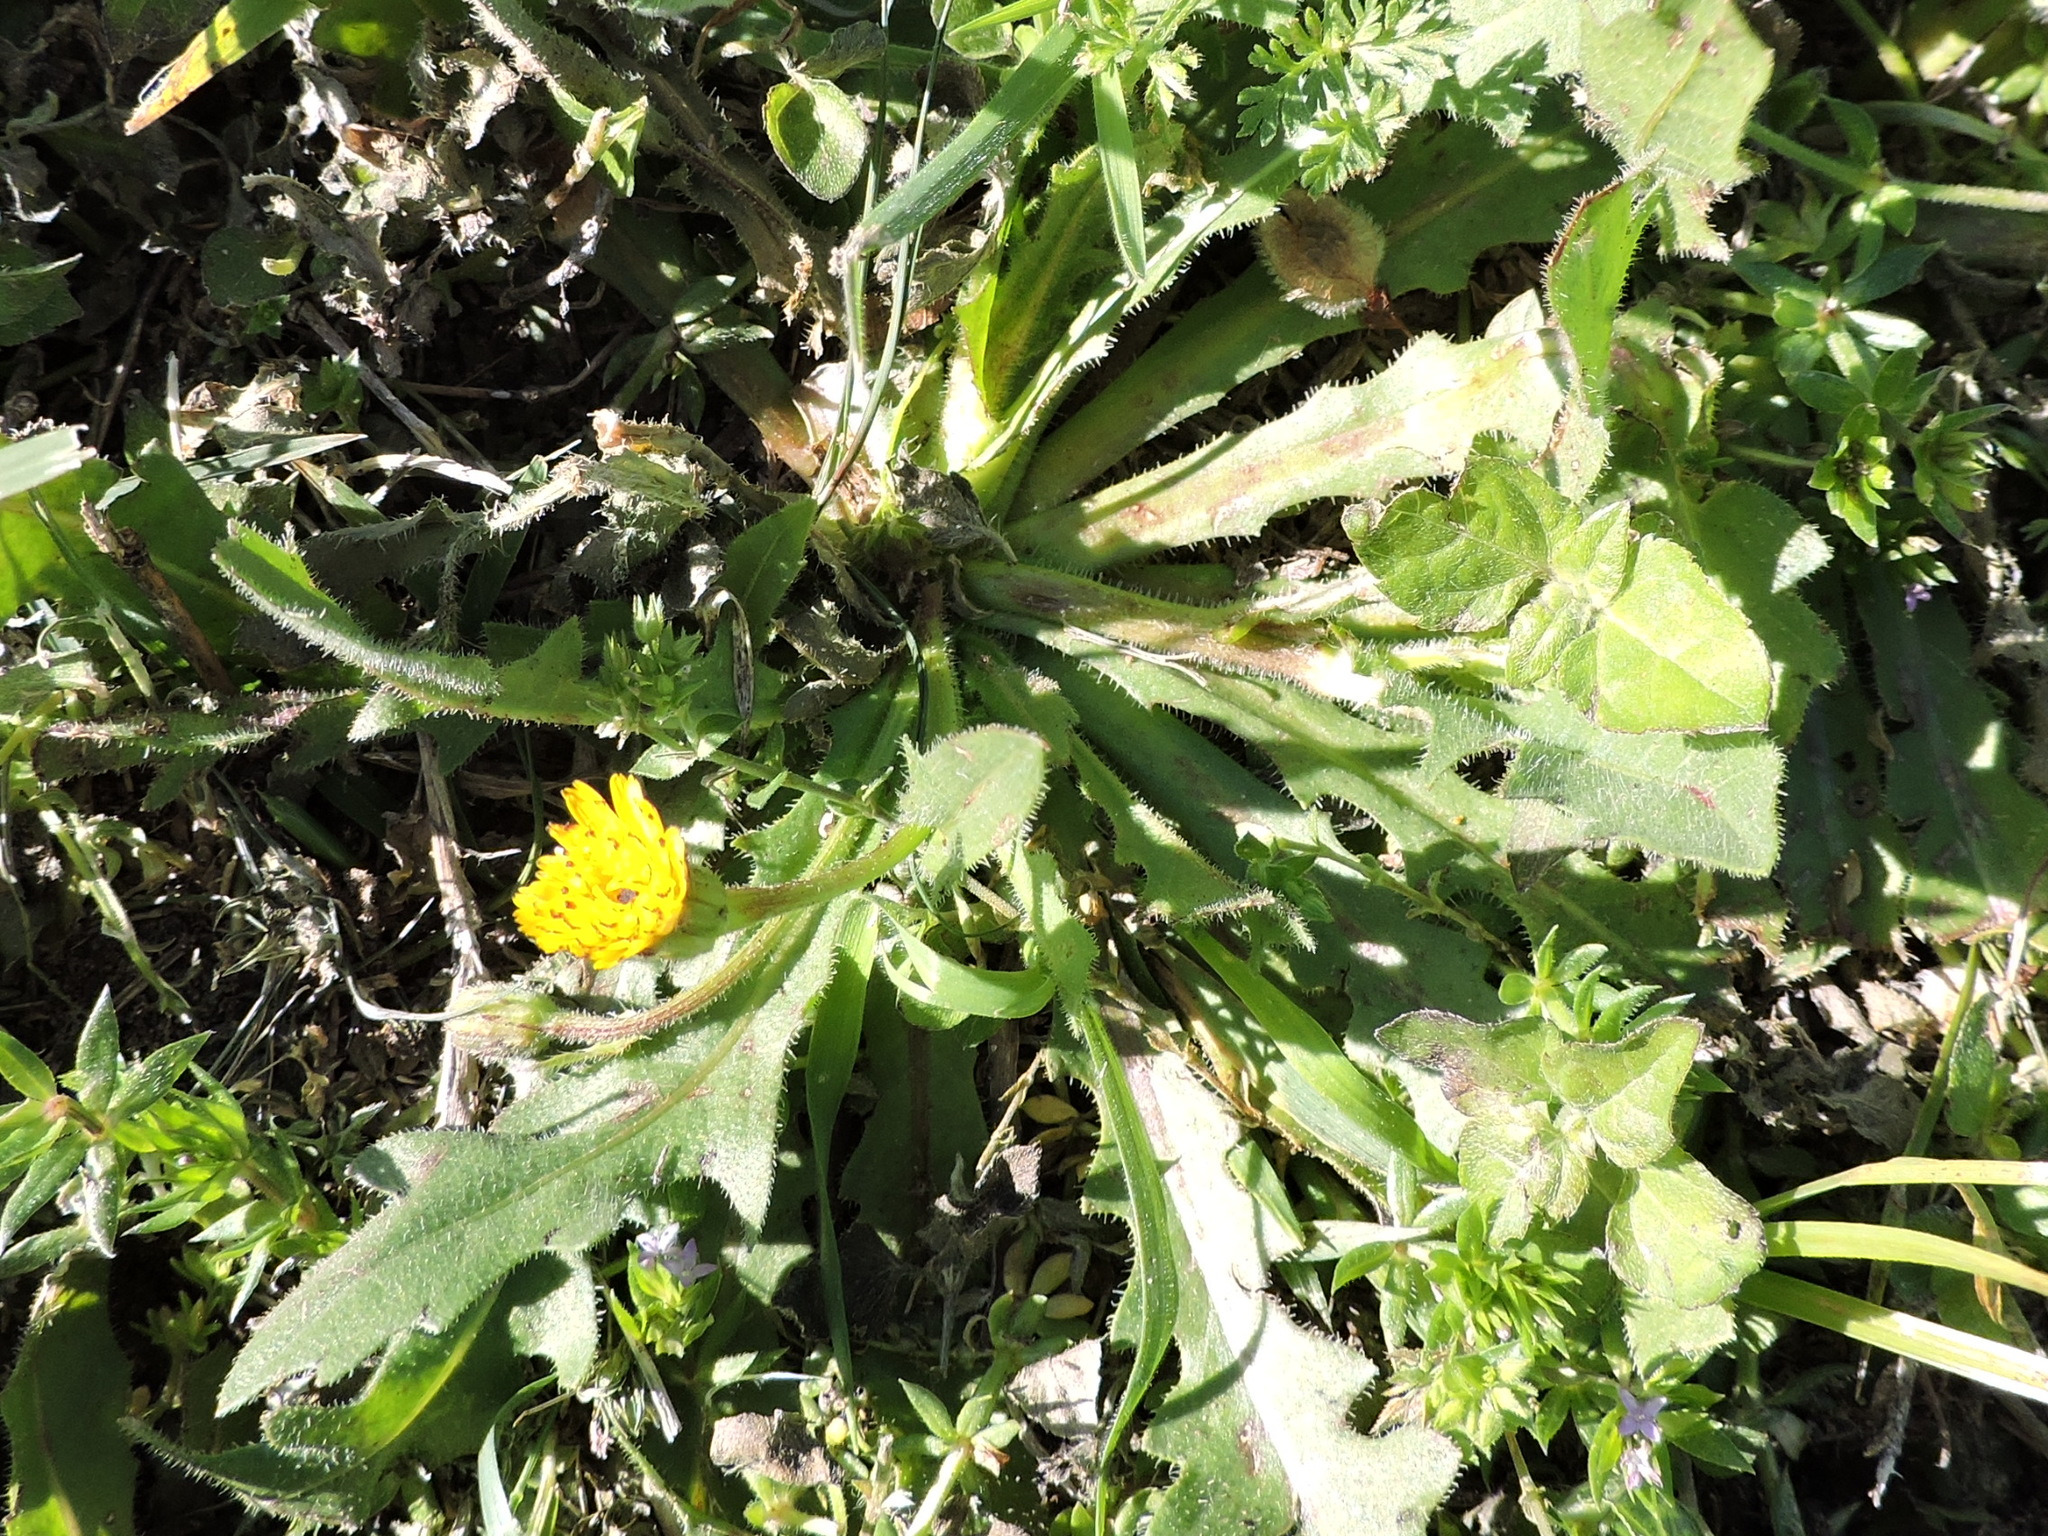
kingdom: Plantae
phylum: Tracheophyta
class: Magnoliopsida
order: Asterales
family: Asteraceae
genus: Hedypnois
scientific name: Hedypnois rhagadioloides
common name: Cretan weed
